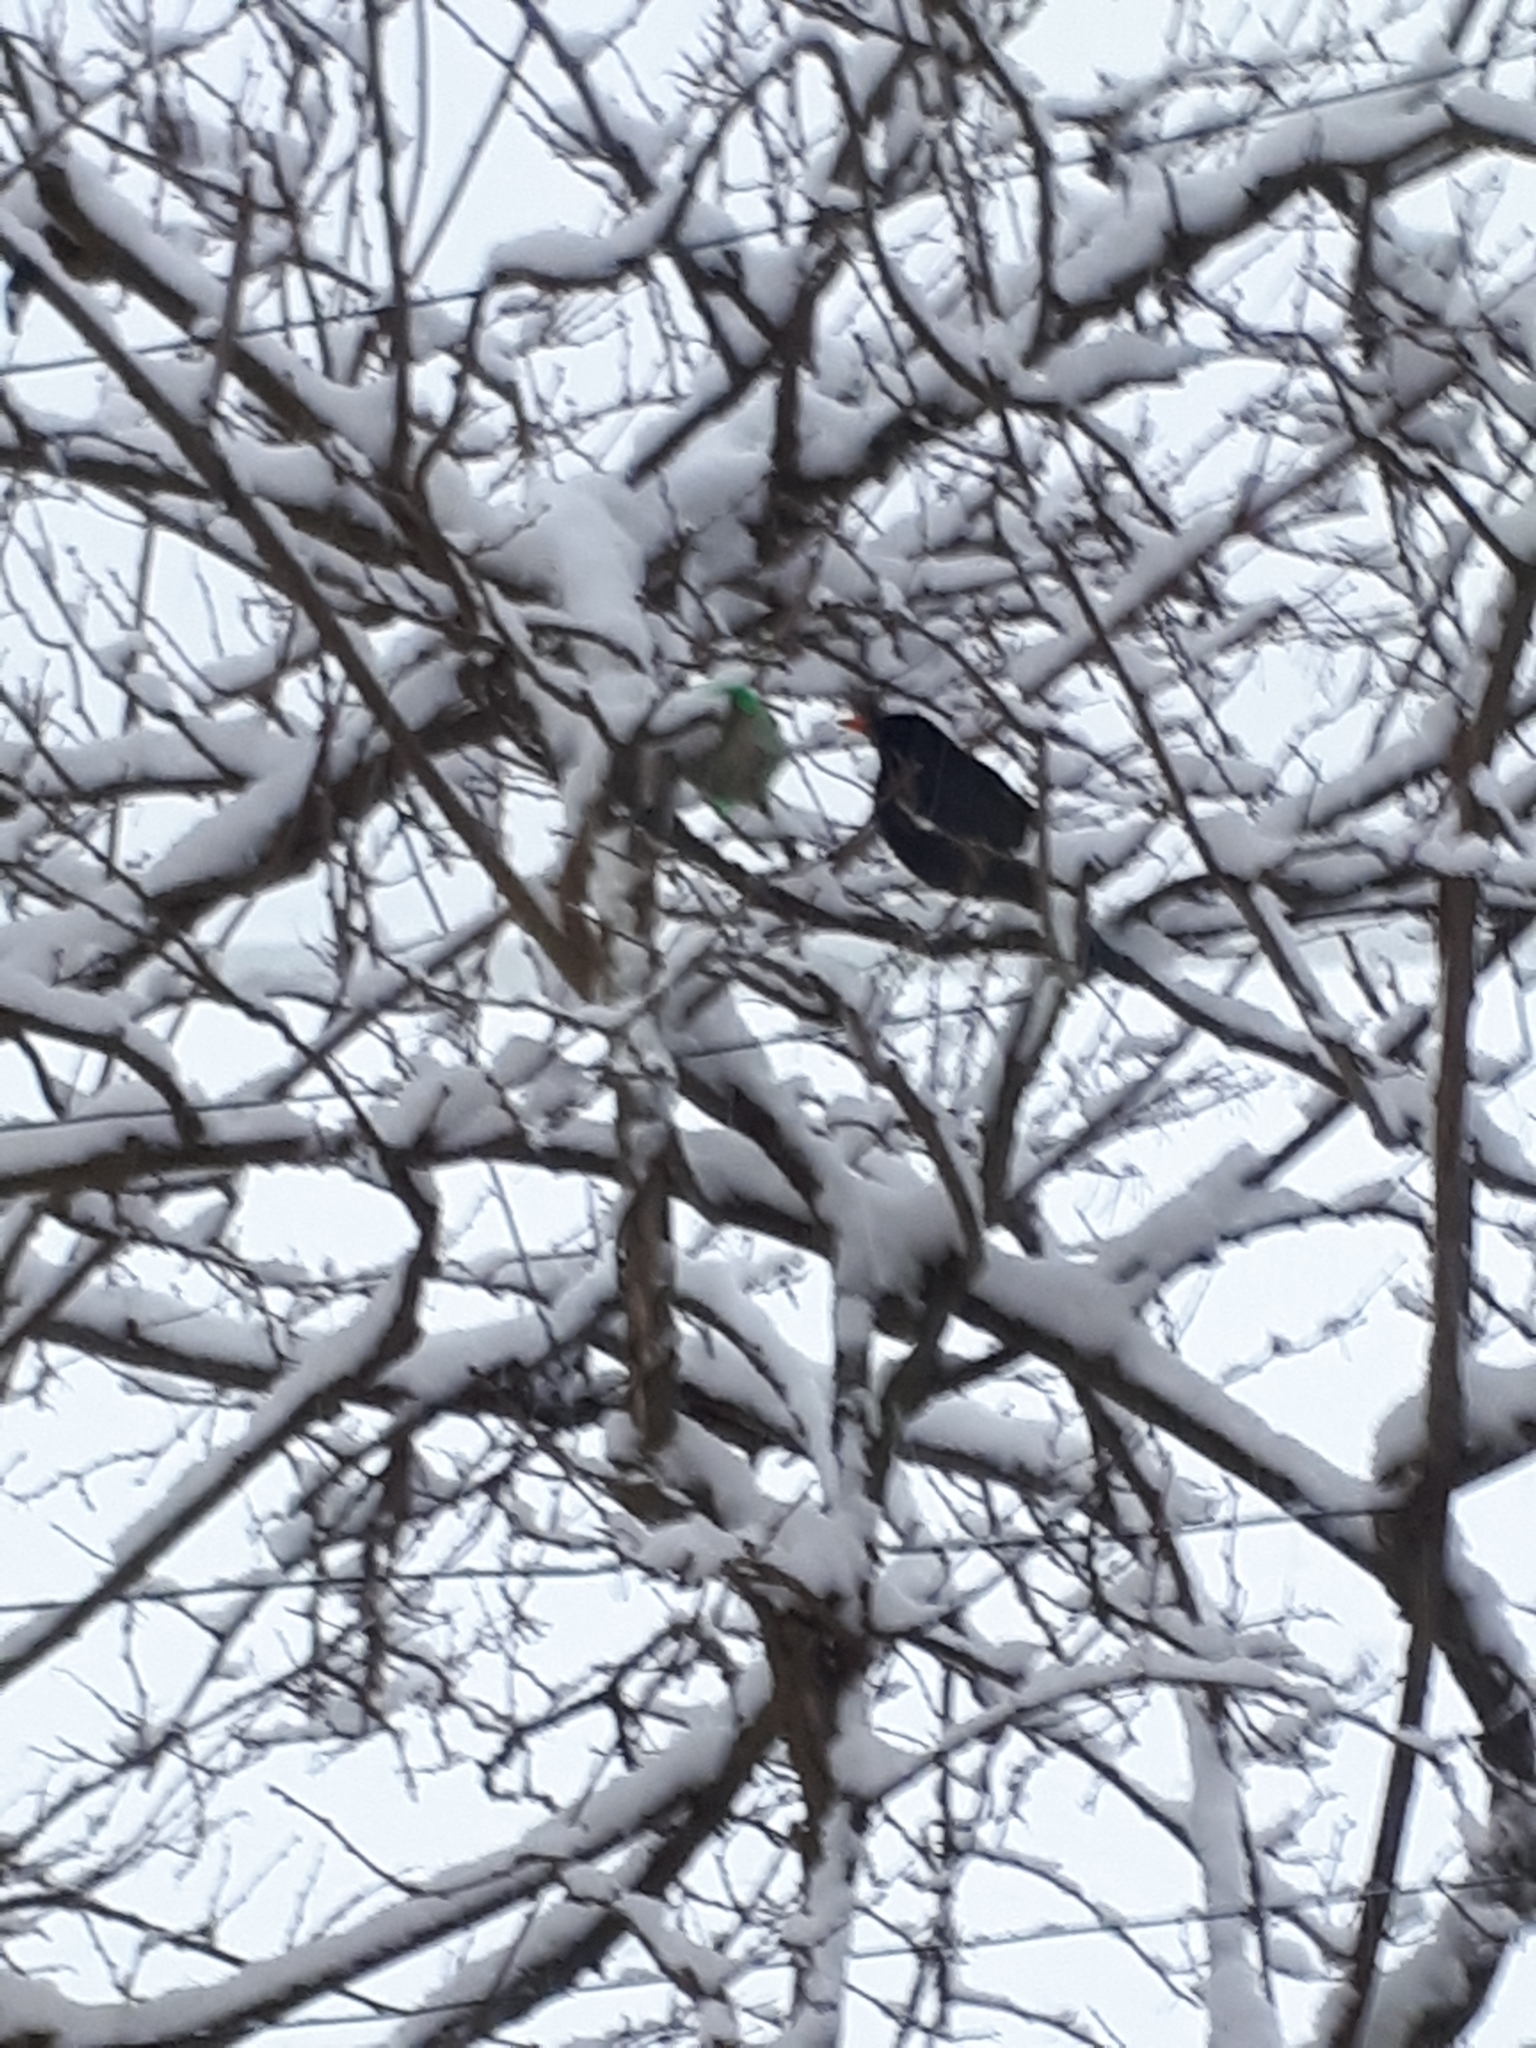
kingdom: Animalia
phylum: Chordata
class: Aves
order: Passeriformes
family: Turdidae
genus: Turdus
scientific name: Turdus merula
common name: Common blackbird
